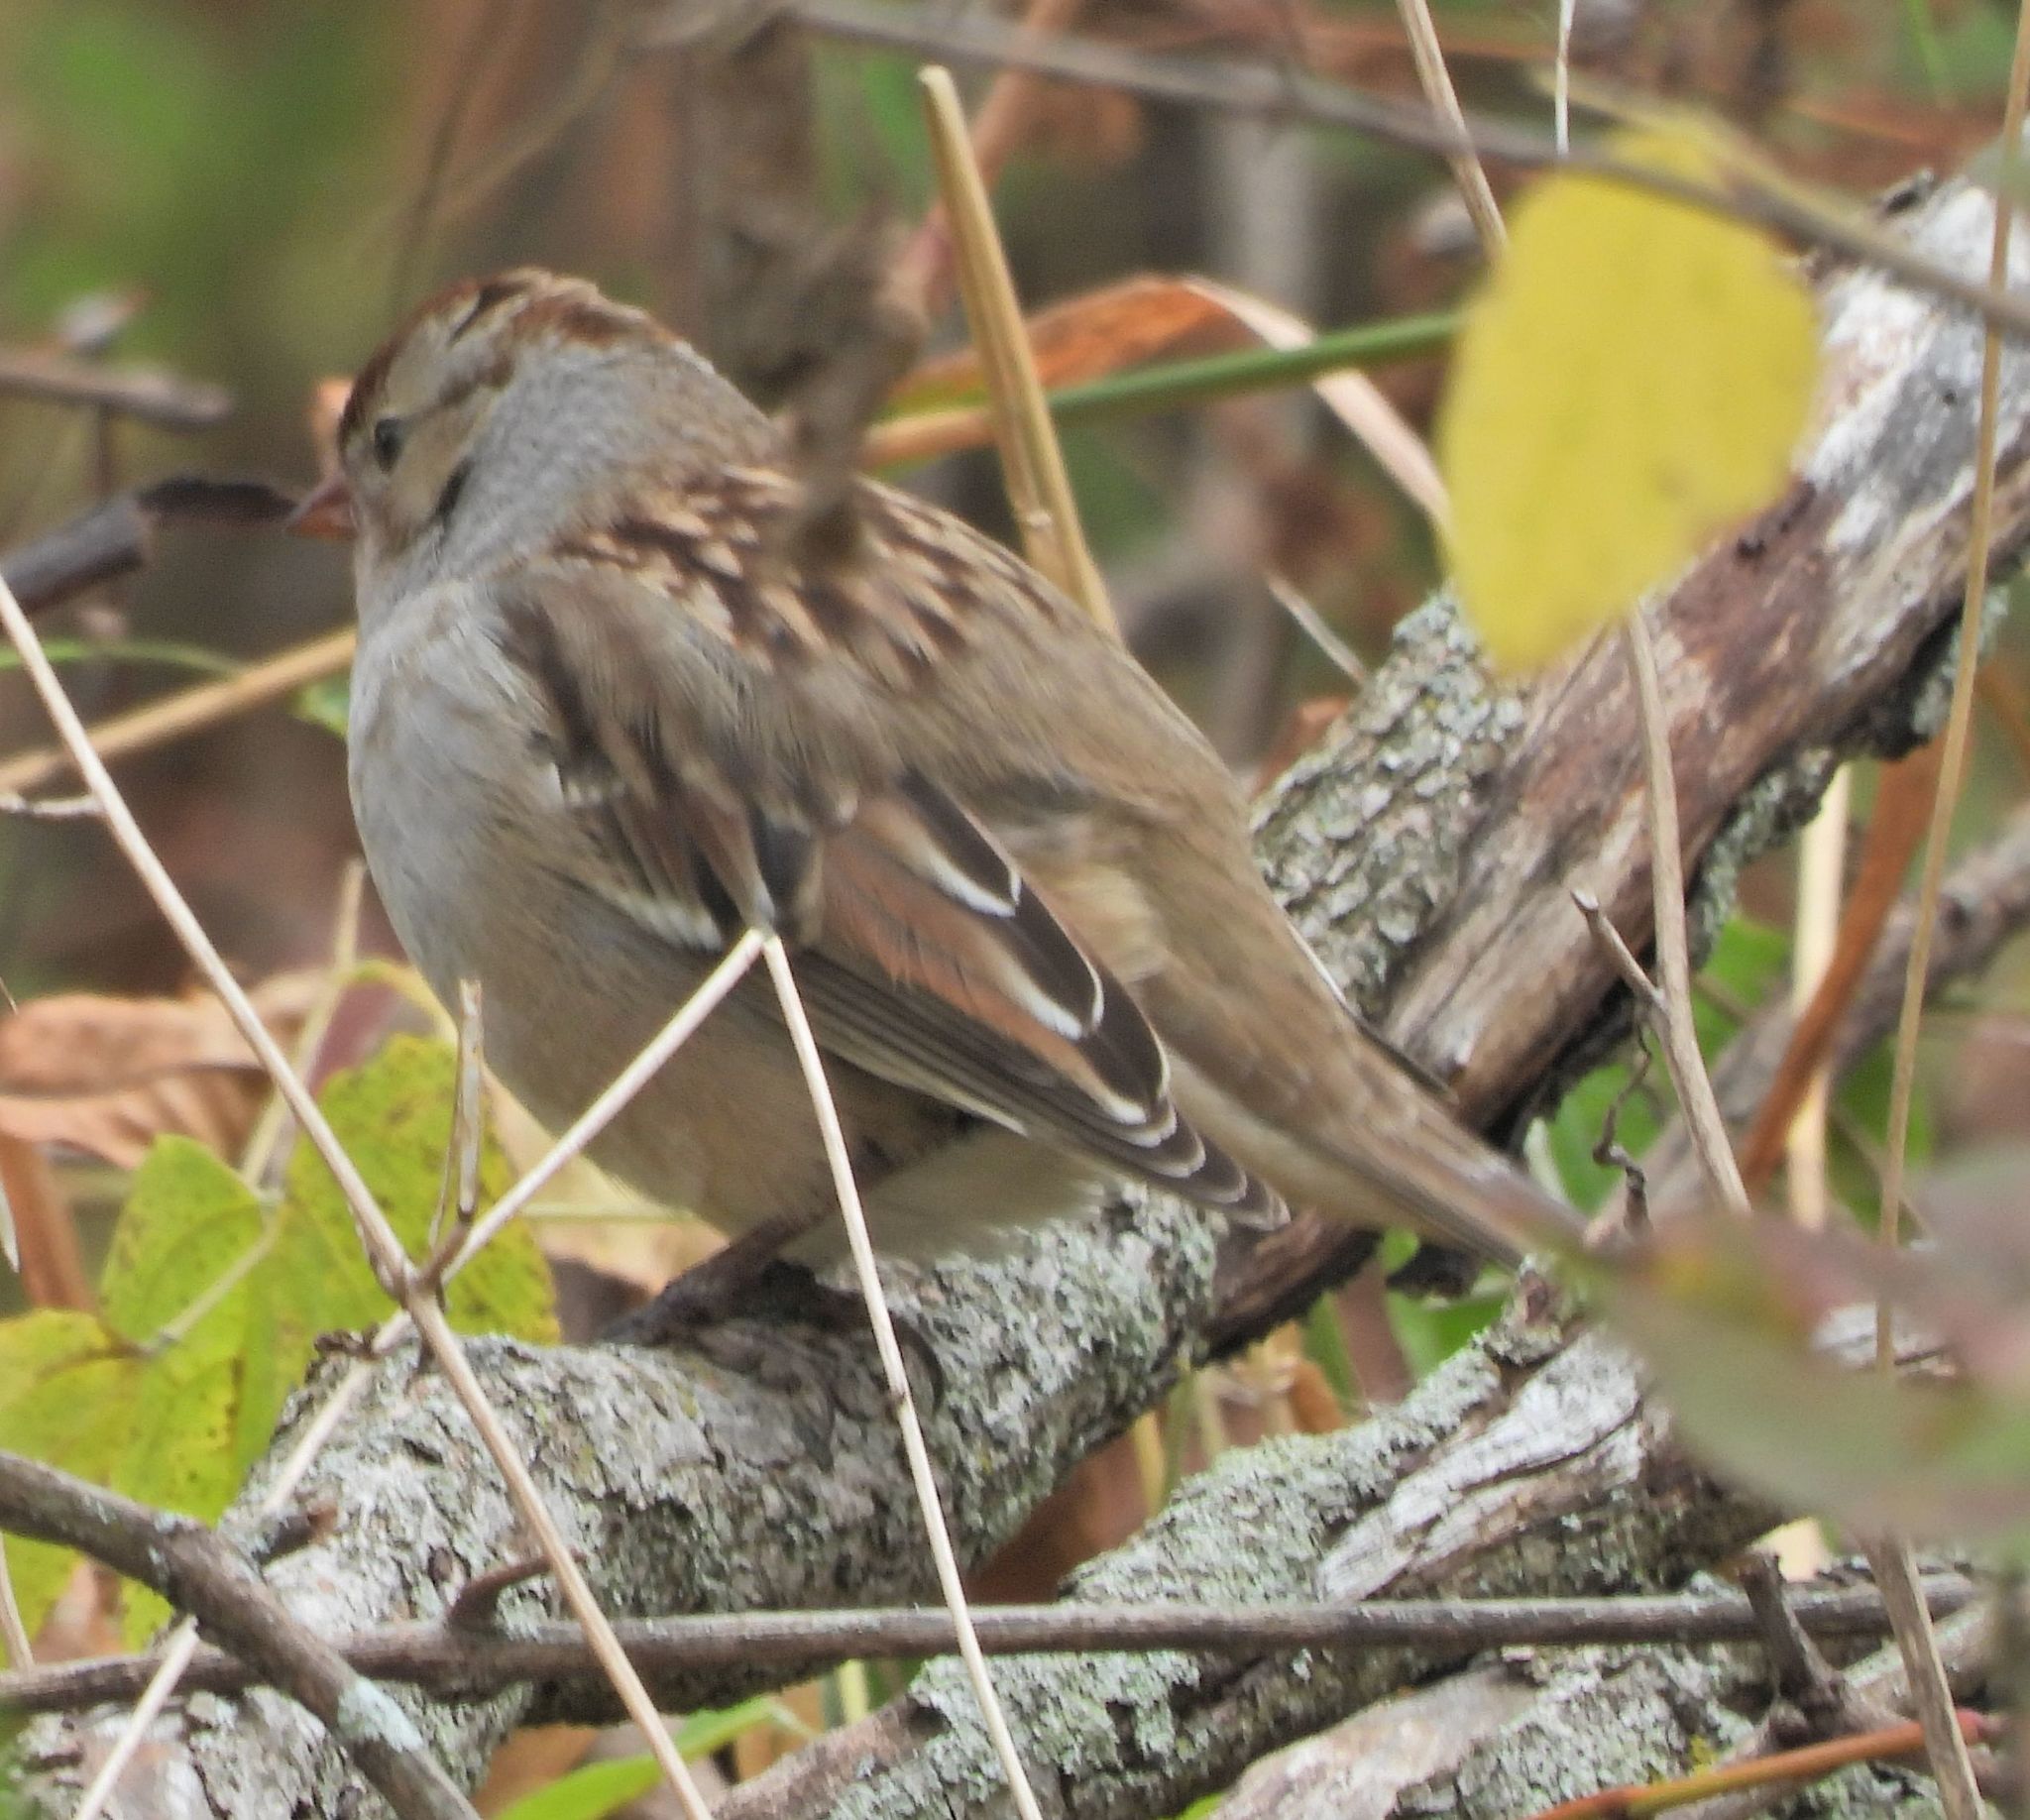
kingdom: Animalia
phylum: Chordata
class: Aves
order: Passeriformes
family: Passerellidae
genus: Zonotrichia
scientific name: Zonotrichia leucophrys
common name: White-crowned sparrow
